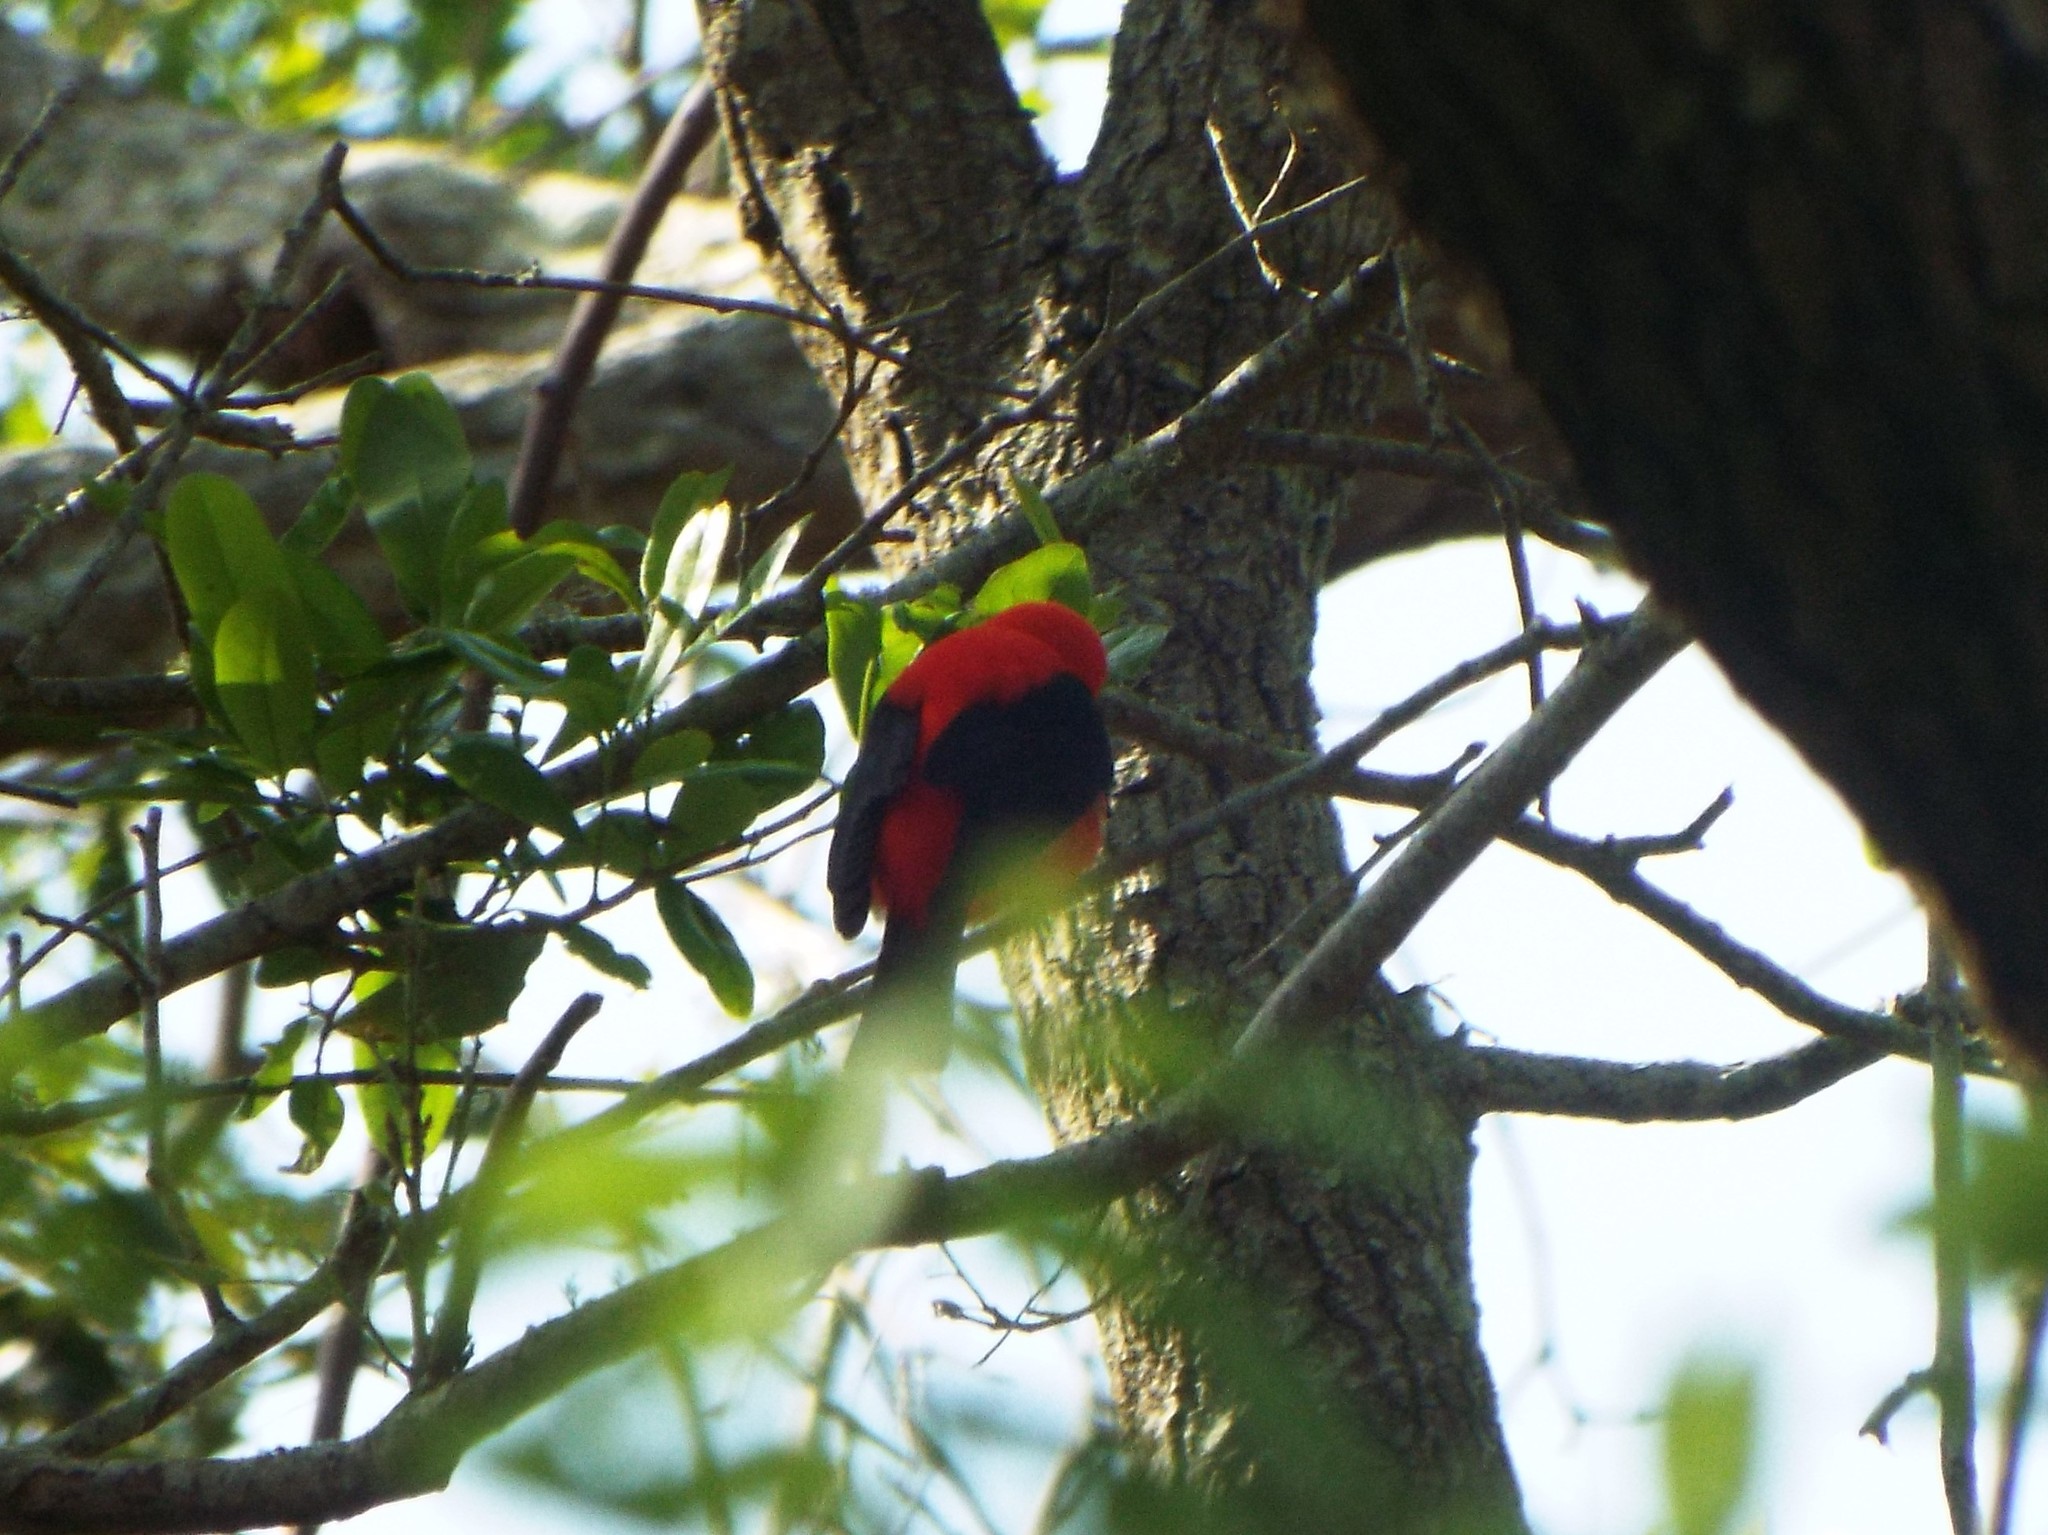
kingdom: Animalia
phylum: Chordata
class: Aves
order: Passeriformes
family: Cardinalidae
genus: Piranga
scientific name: Piranga olivacea
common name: Scarlet tanager
